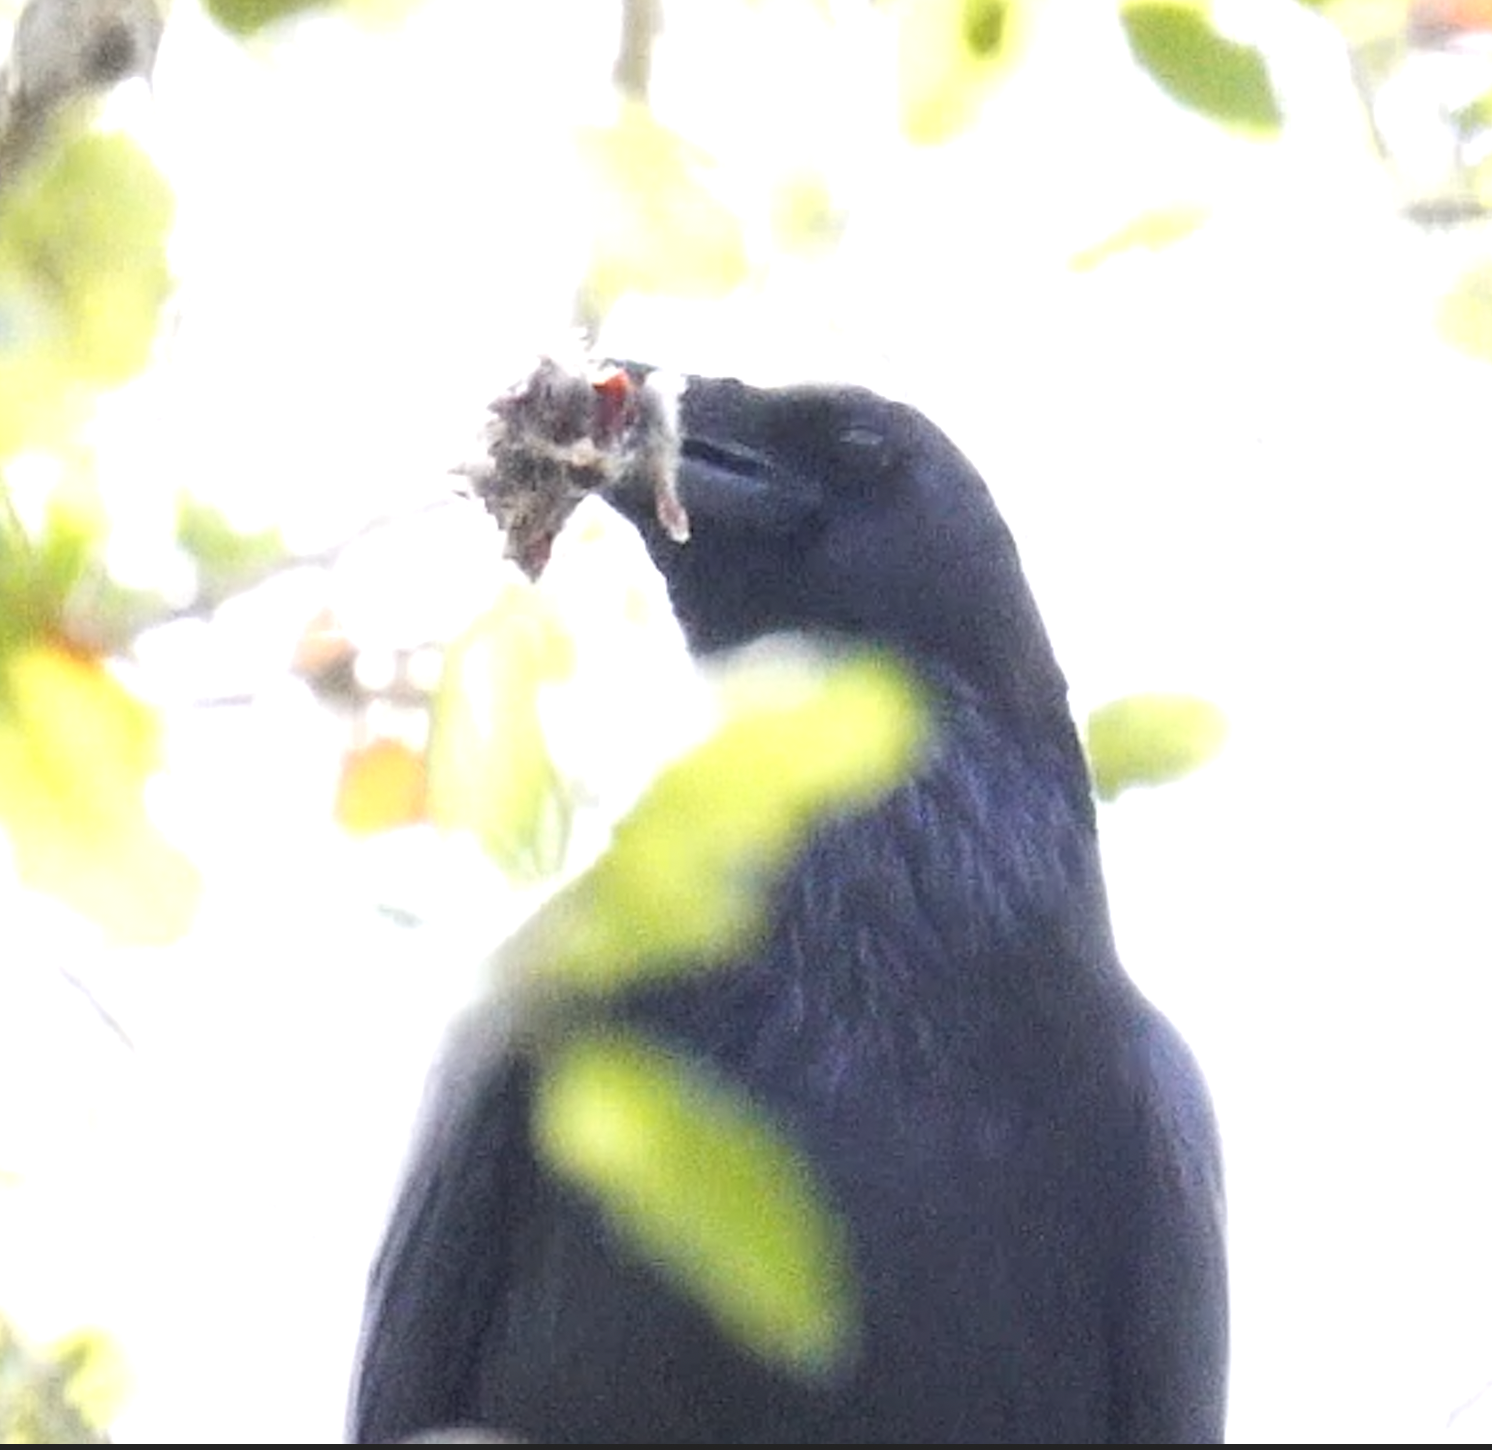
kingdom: Animalia
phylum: Chordata
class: Aves
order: Passeriformes
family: Corvidae
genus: Corvus
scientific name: Corvus corax
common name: Common raven
